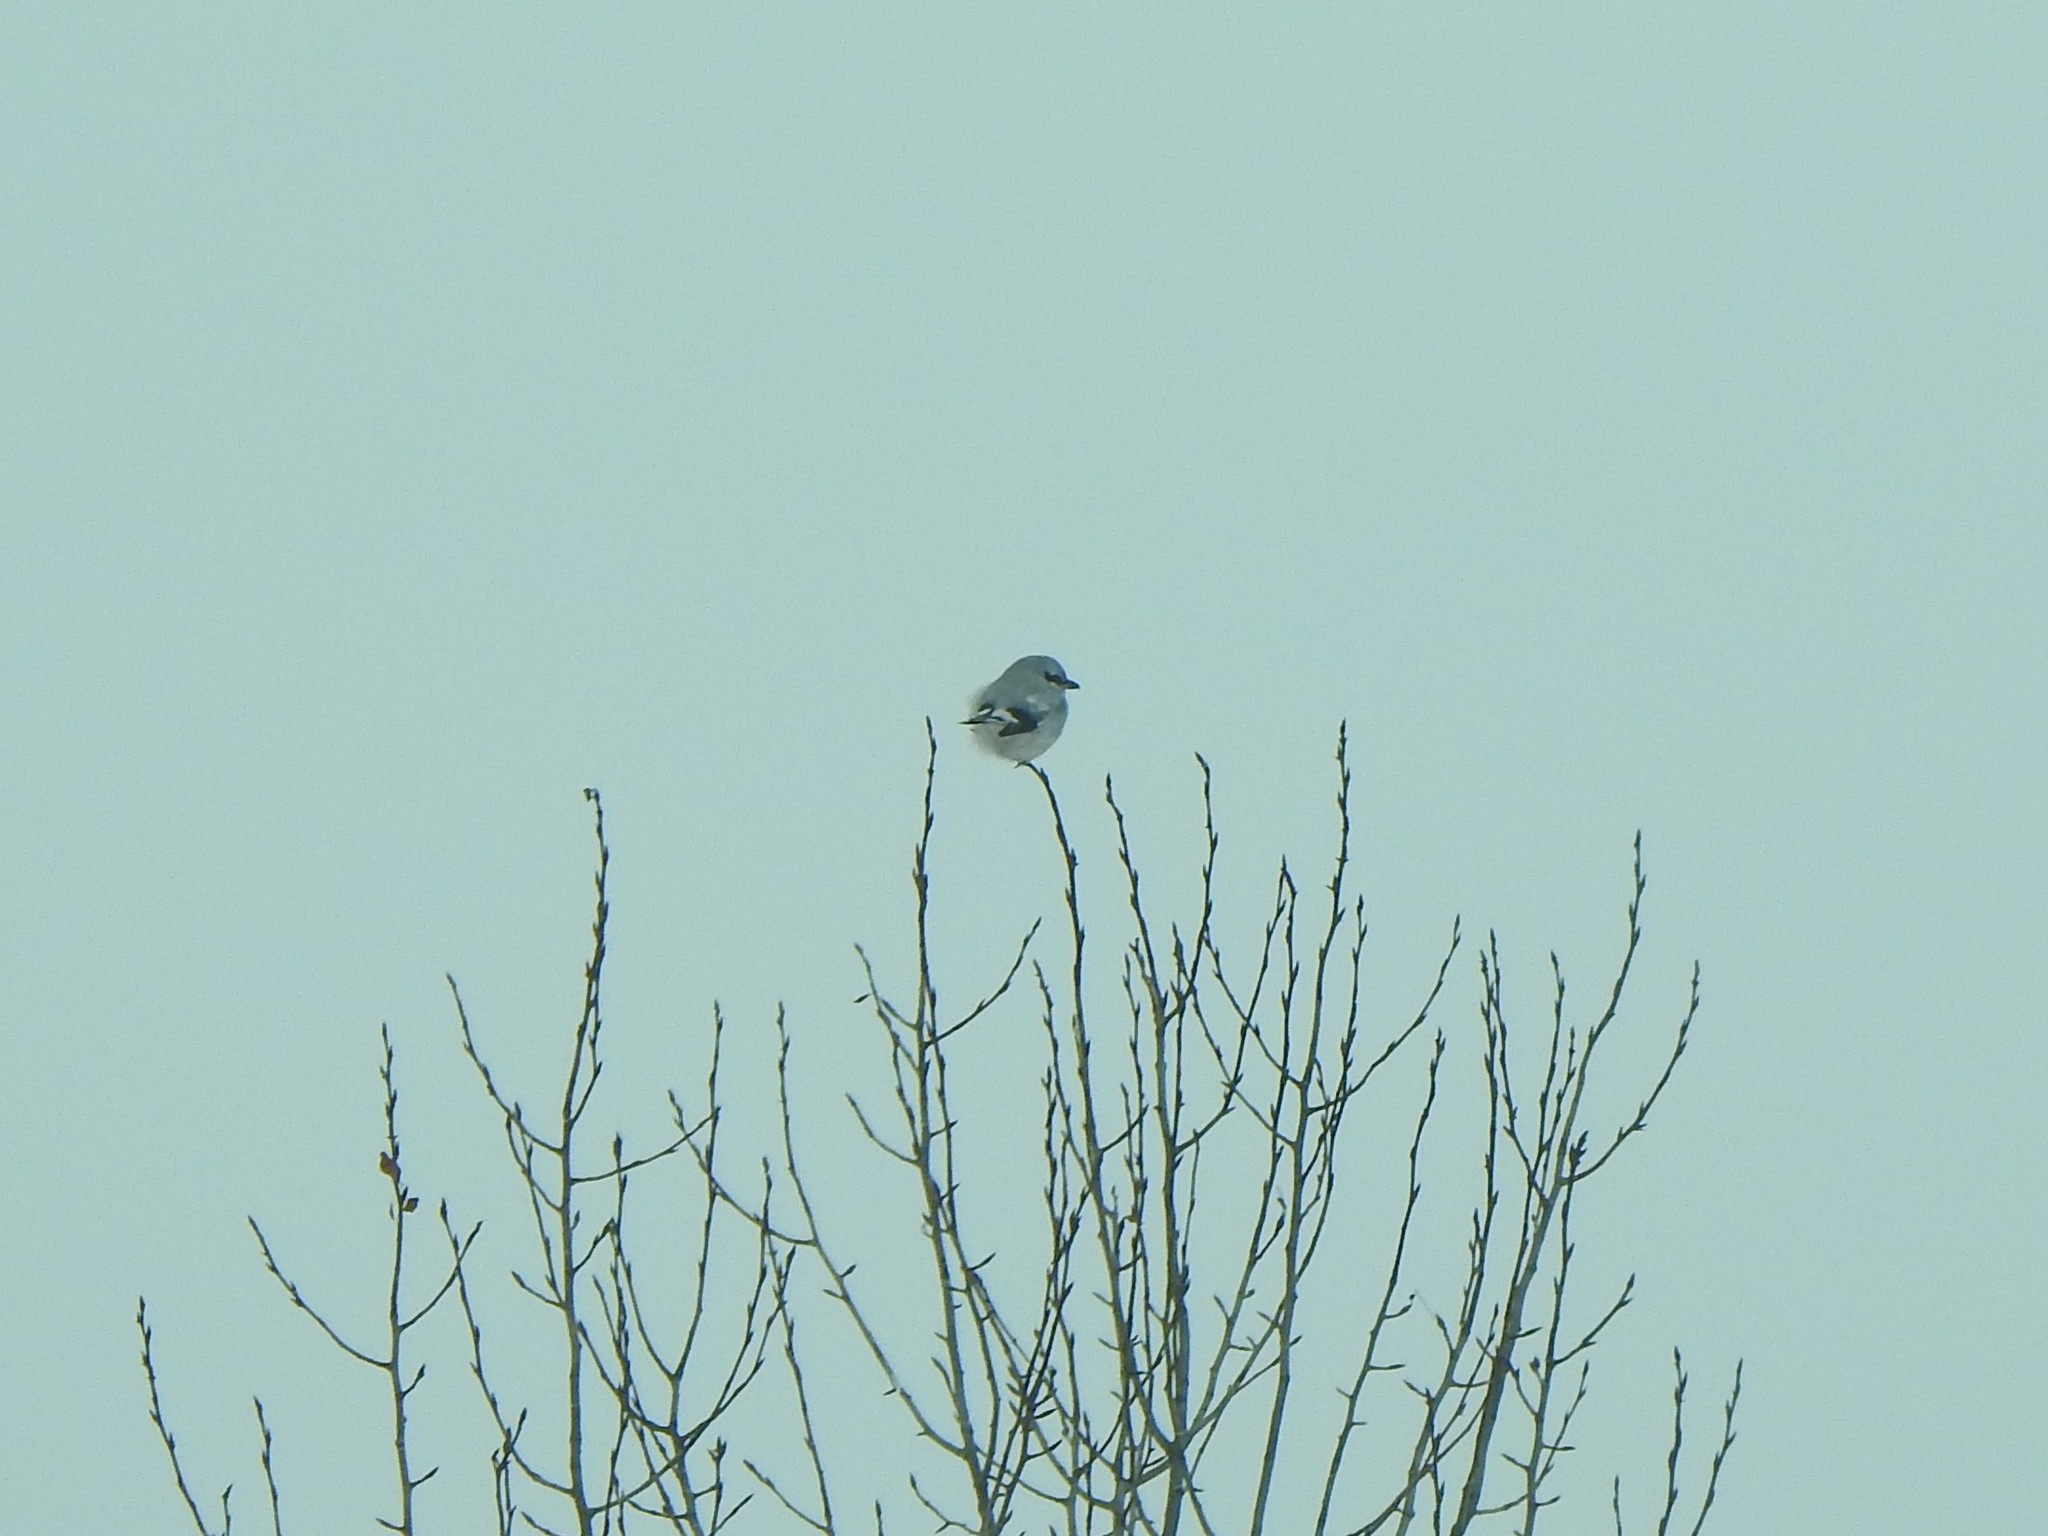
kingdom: Animalia
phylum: Chordata
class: Aves
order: Passeriformes
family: Laniidae
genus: Lanius
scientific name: Lanius borealis
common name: Northern shrike
